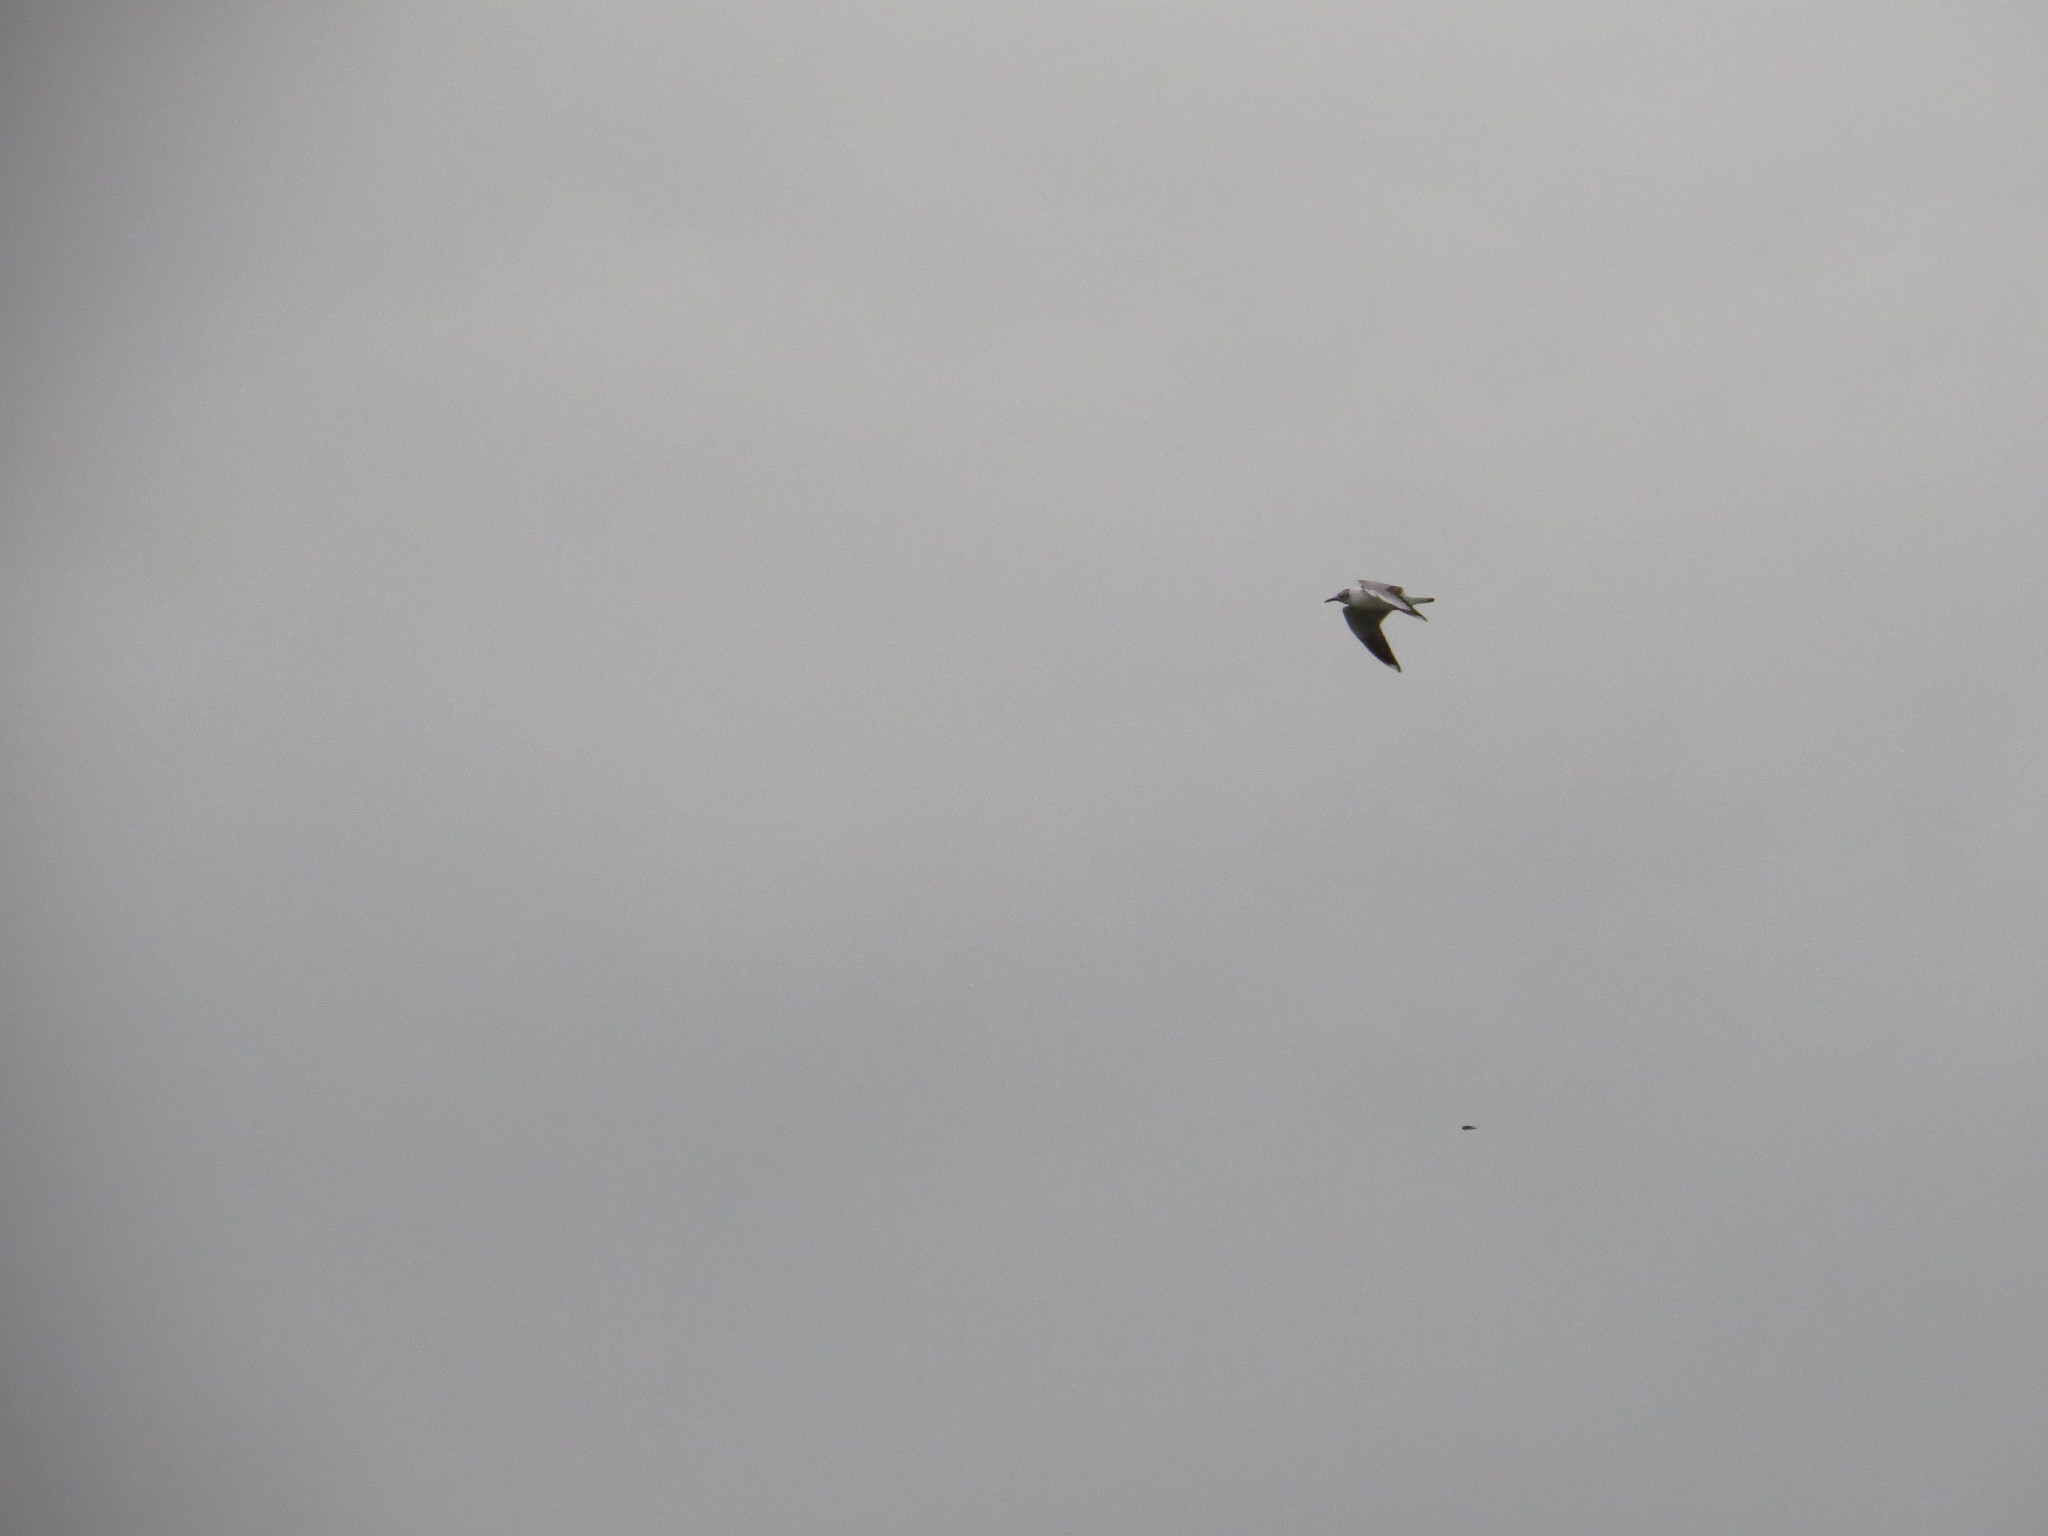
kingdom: Animalia
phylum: Chordata
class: Aves
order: Charadriiformes
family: Laridae
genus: Chroicocephalus
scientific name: Chroicocephalus maculipennis
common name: Brown-hooded gull
